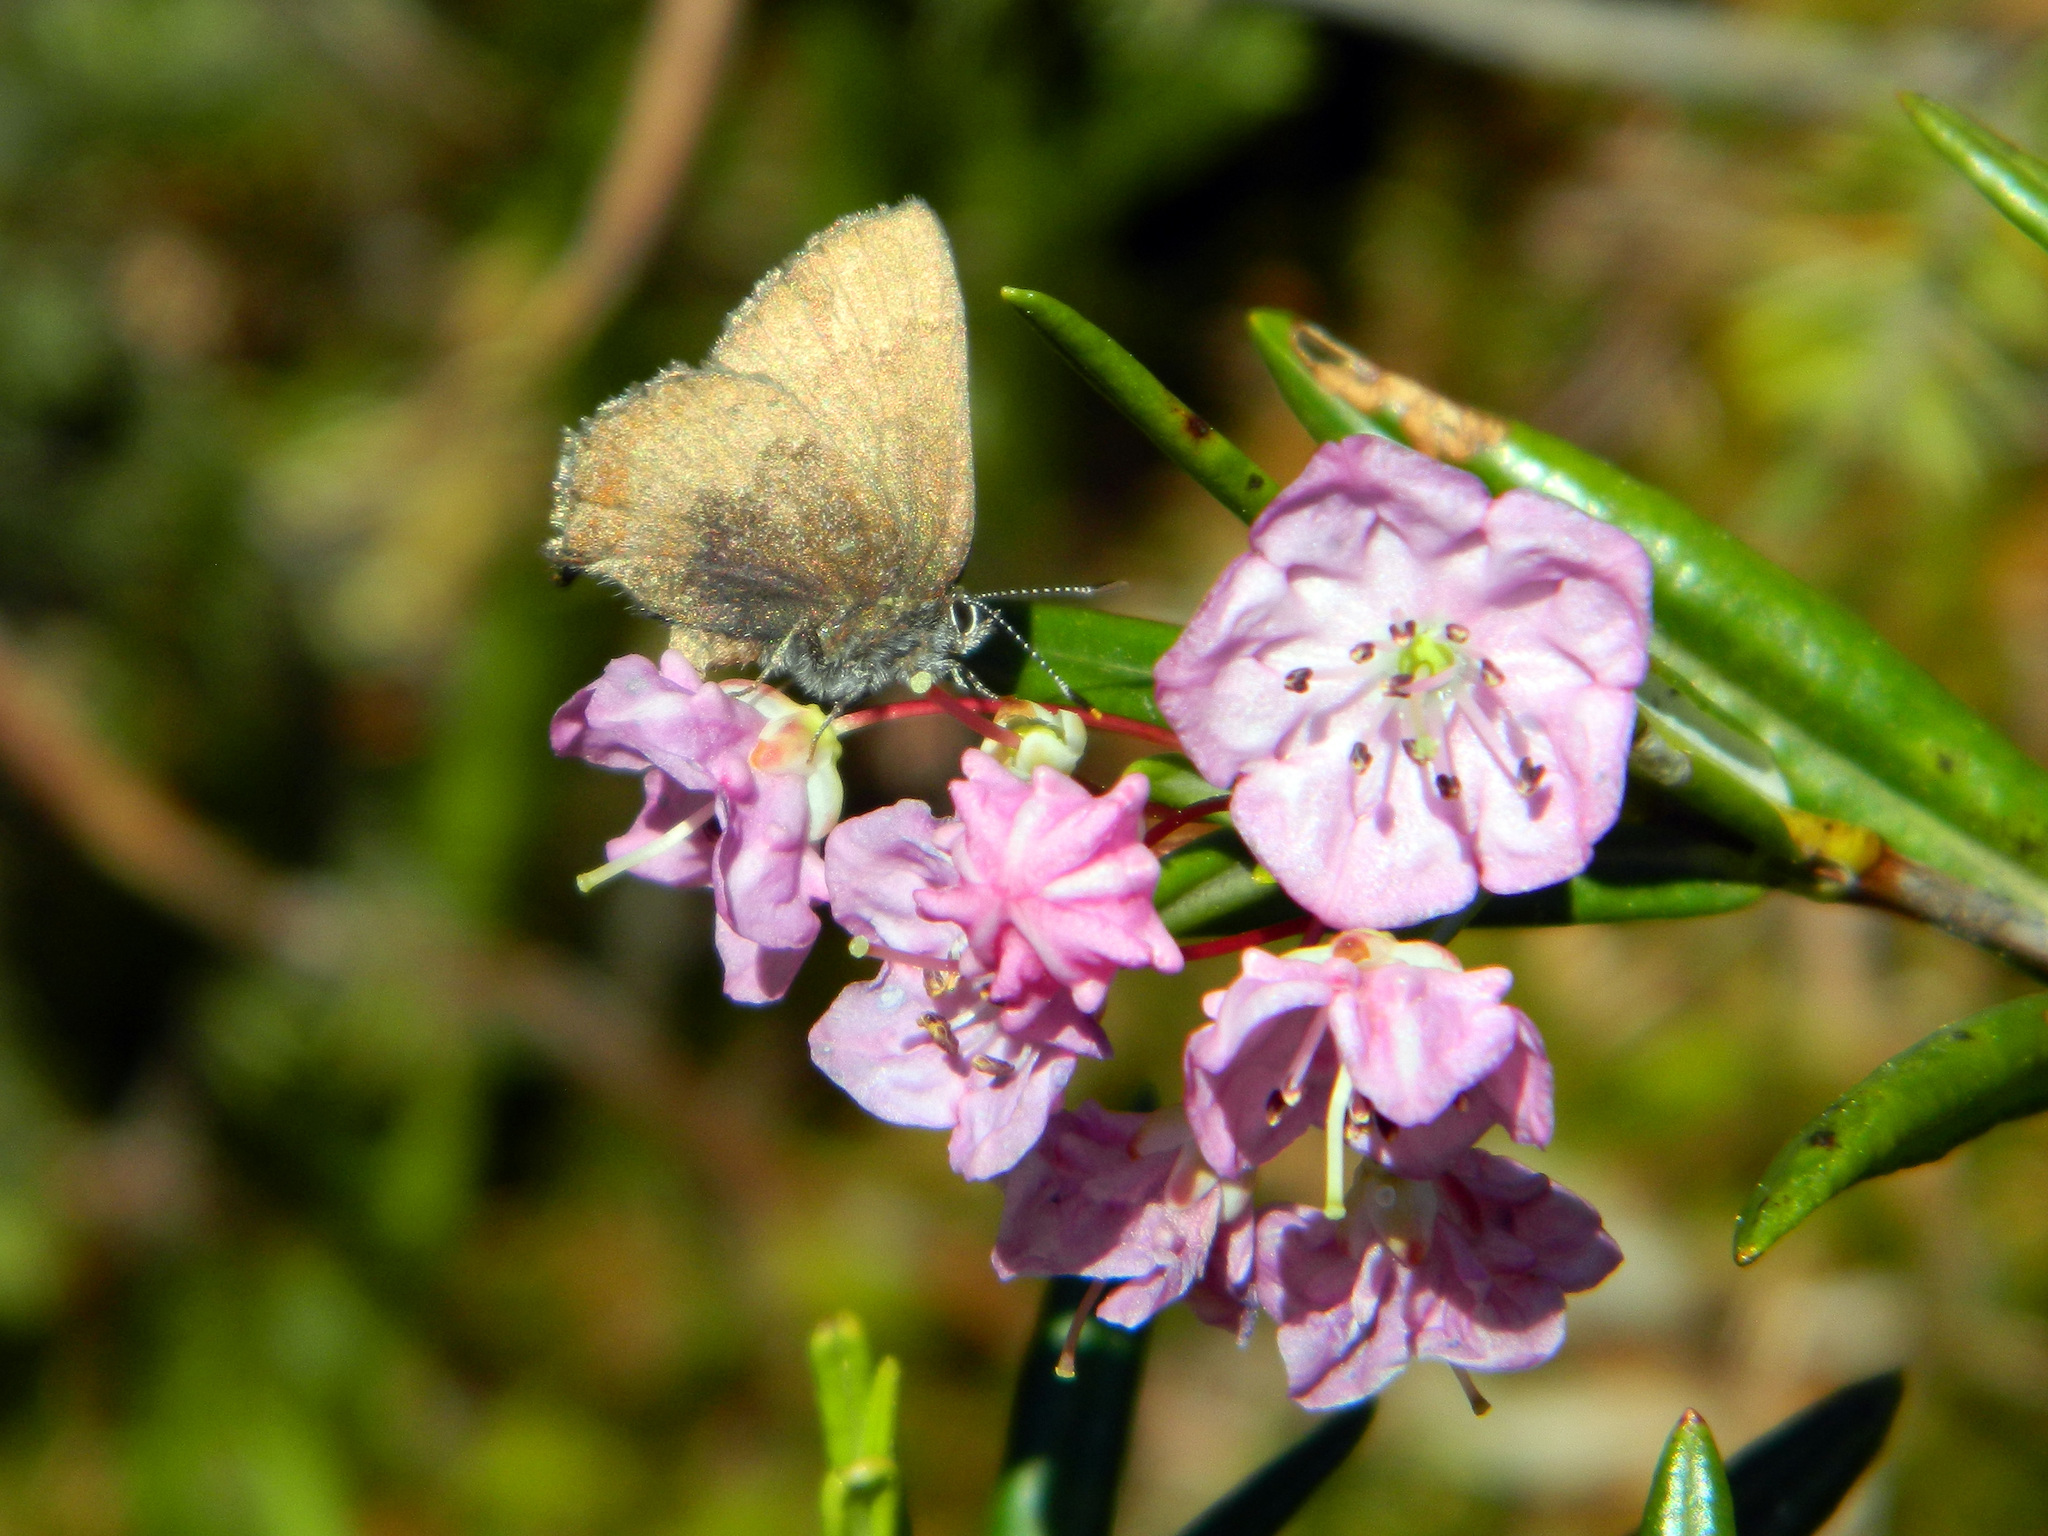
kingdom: Animalia
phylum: Arthropoda
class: Insecta
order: Lepidoptera
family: Lycaenidae
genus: Incisalia
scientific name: Incisalia irioides
